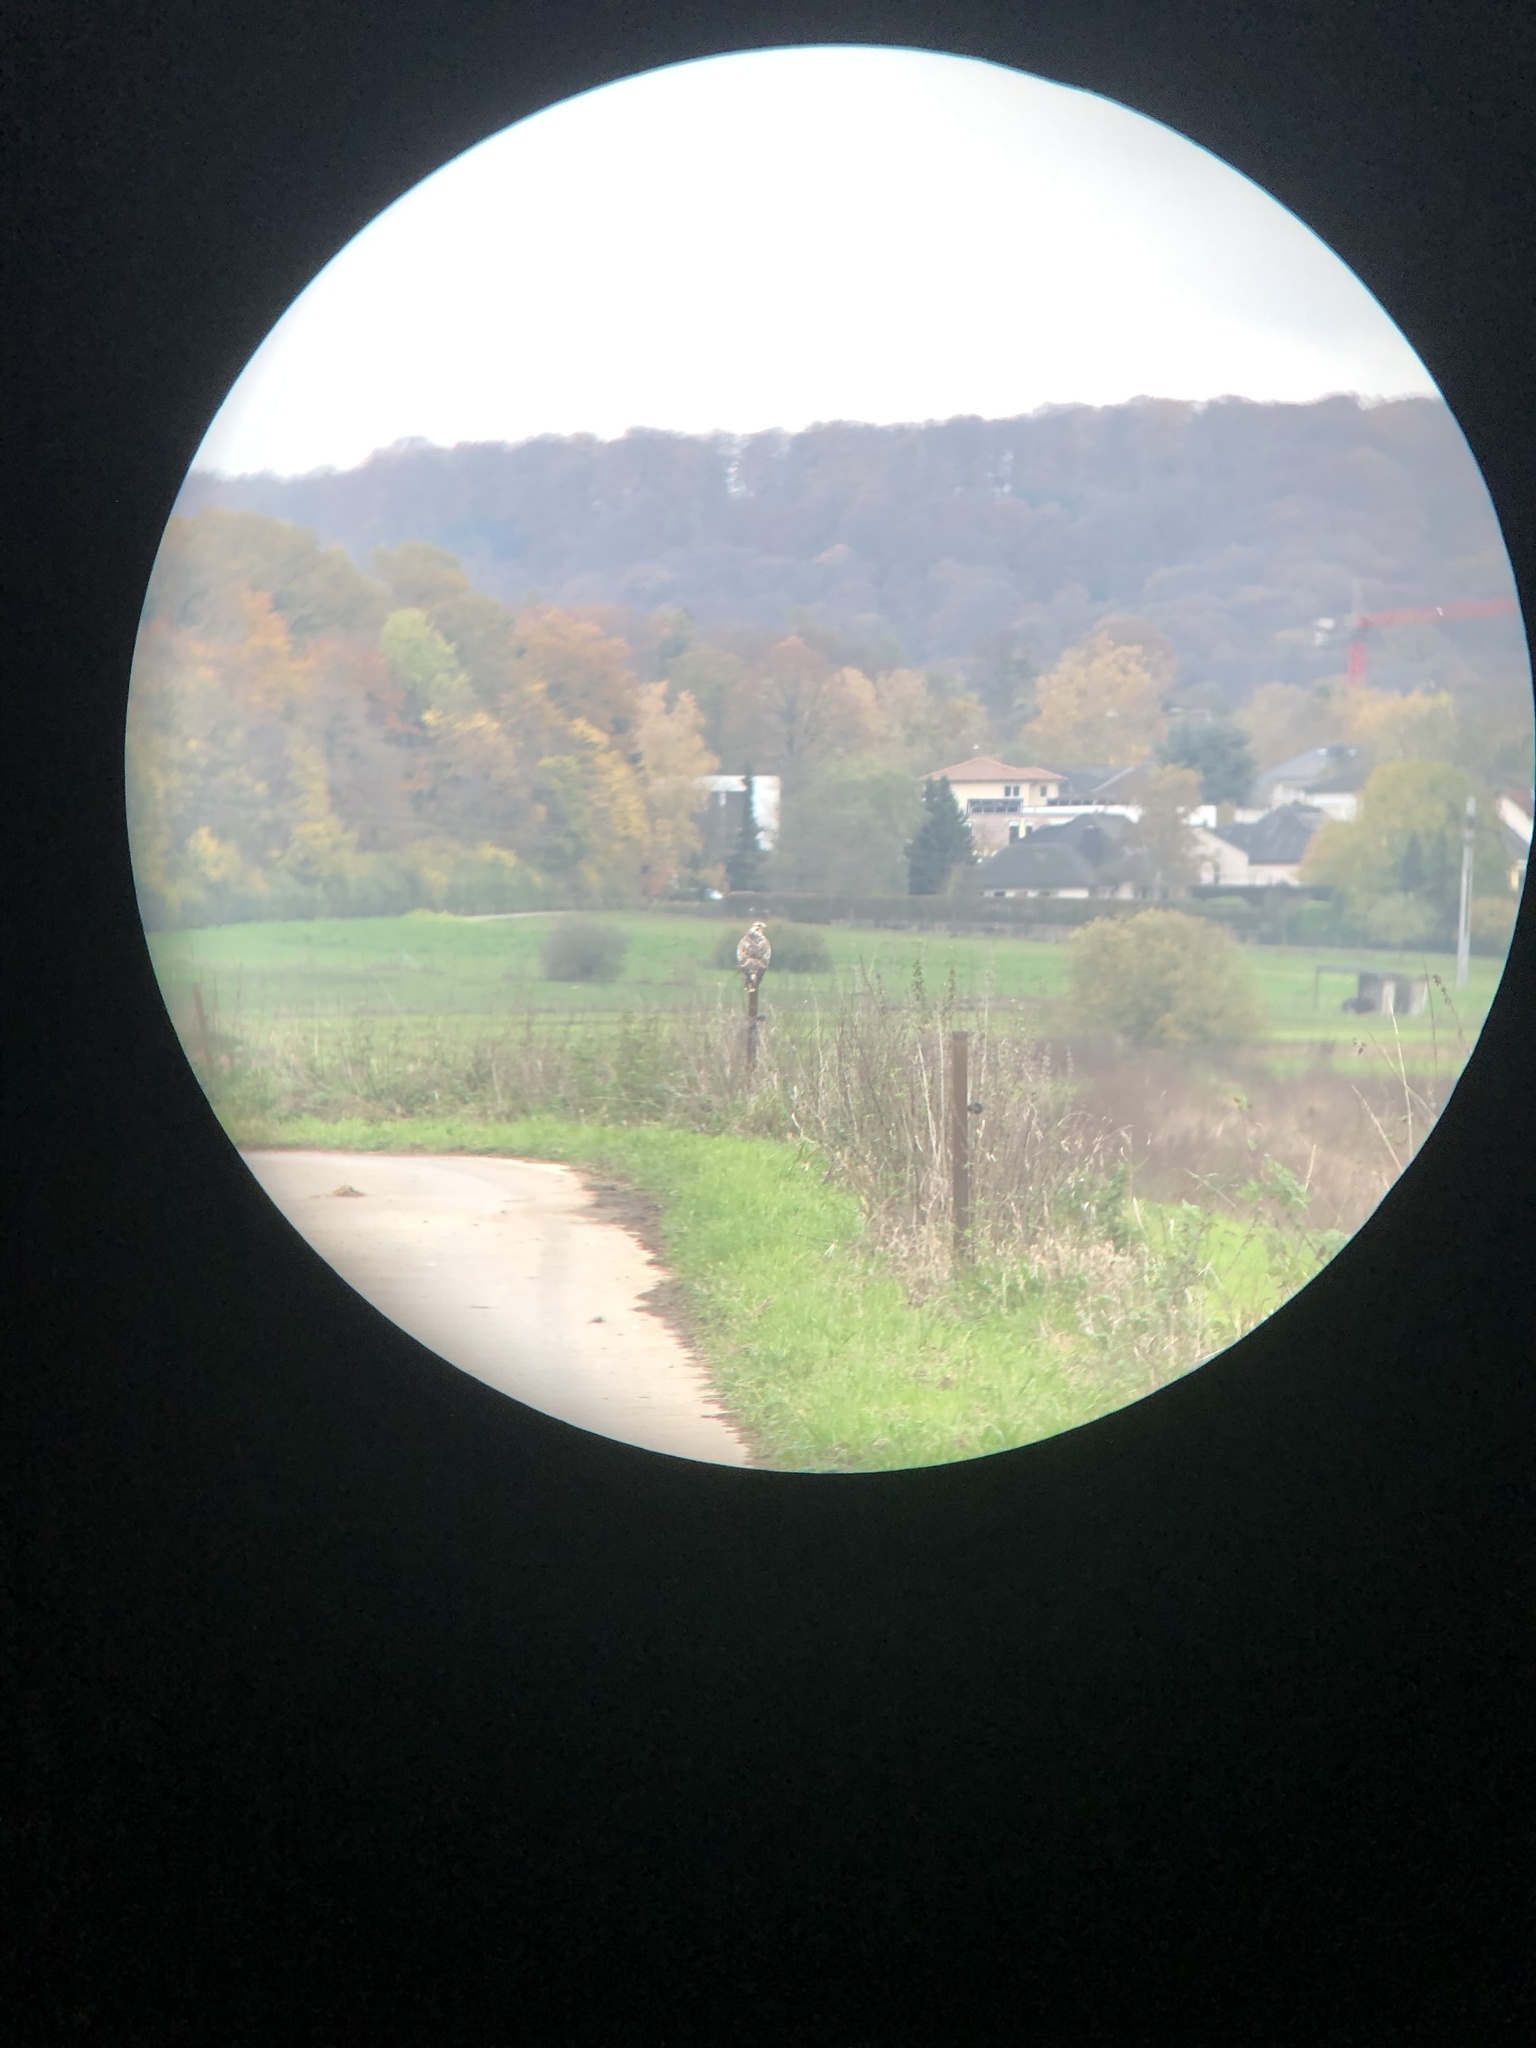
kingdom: Animalia
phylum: Chordata
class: Aves
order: Accipitriformes
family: Accipitridae
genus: Buteo
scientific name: Buteo buteo
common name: Common buzzard
